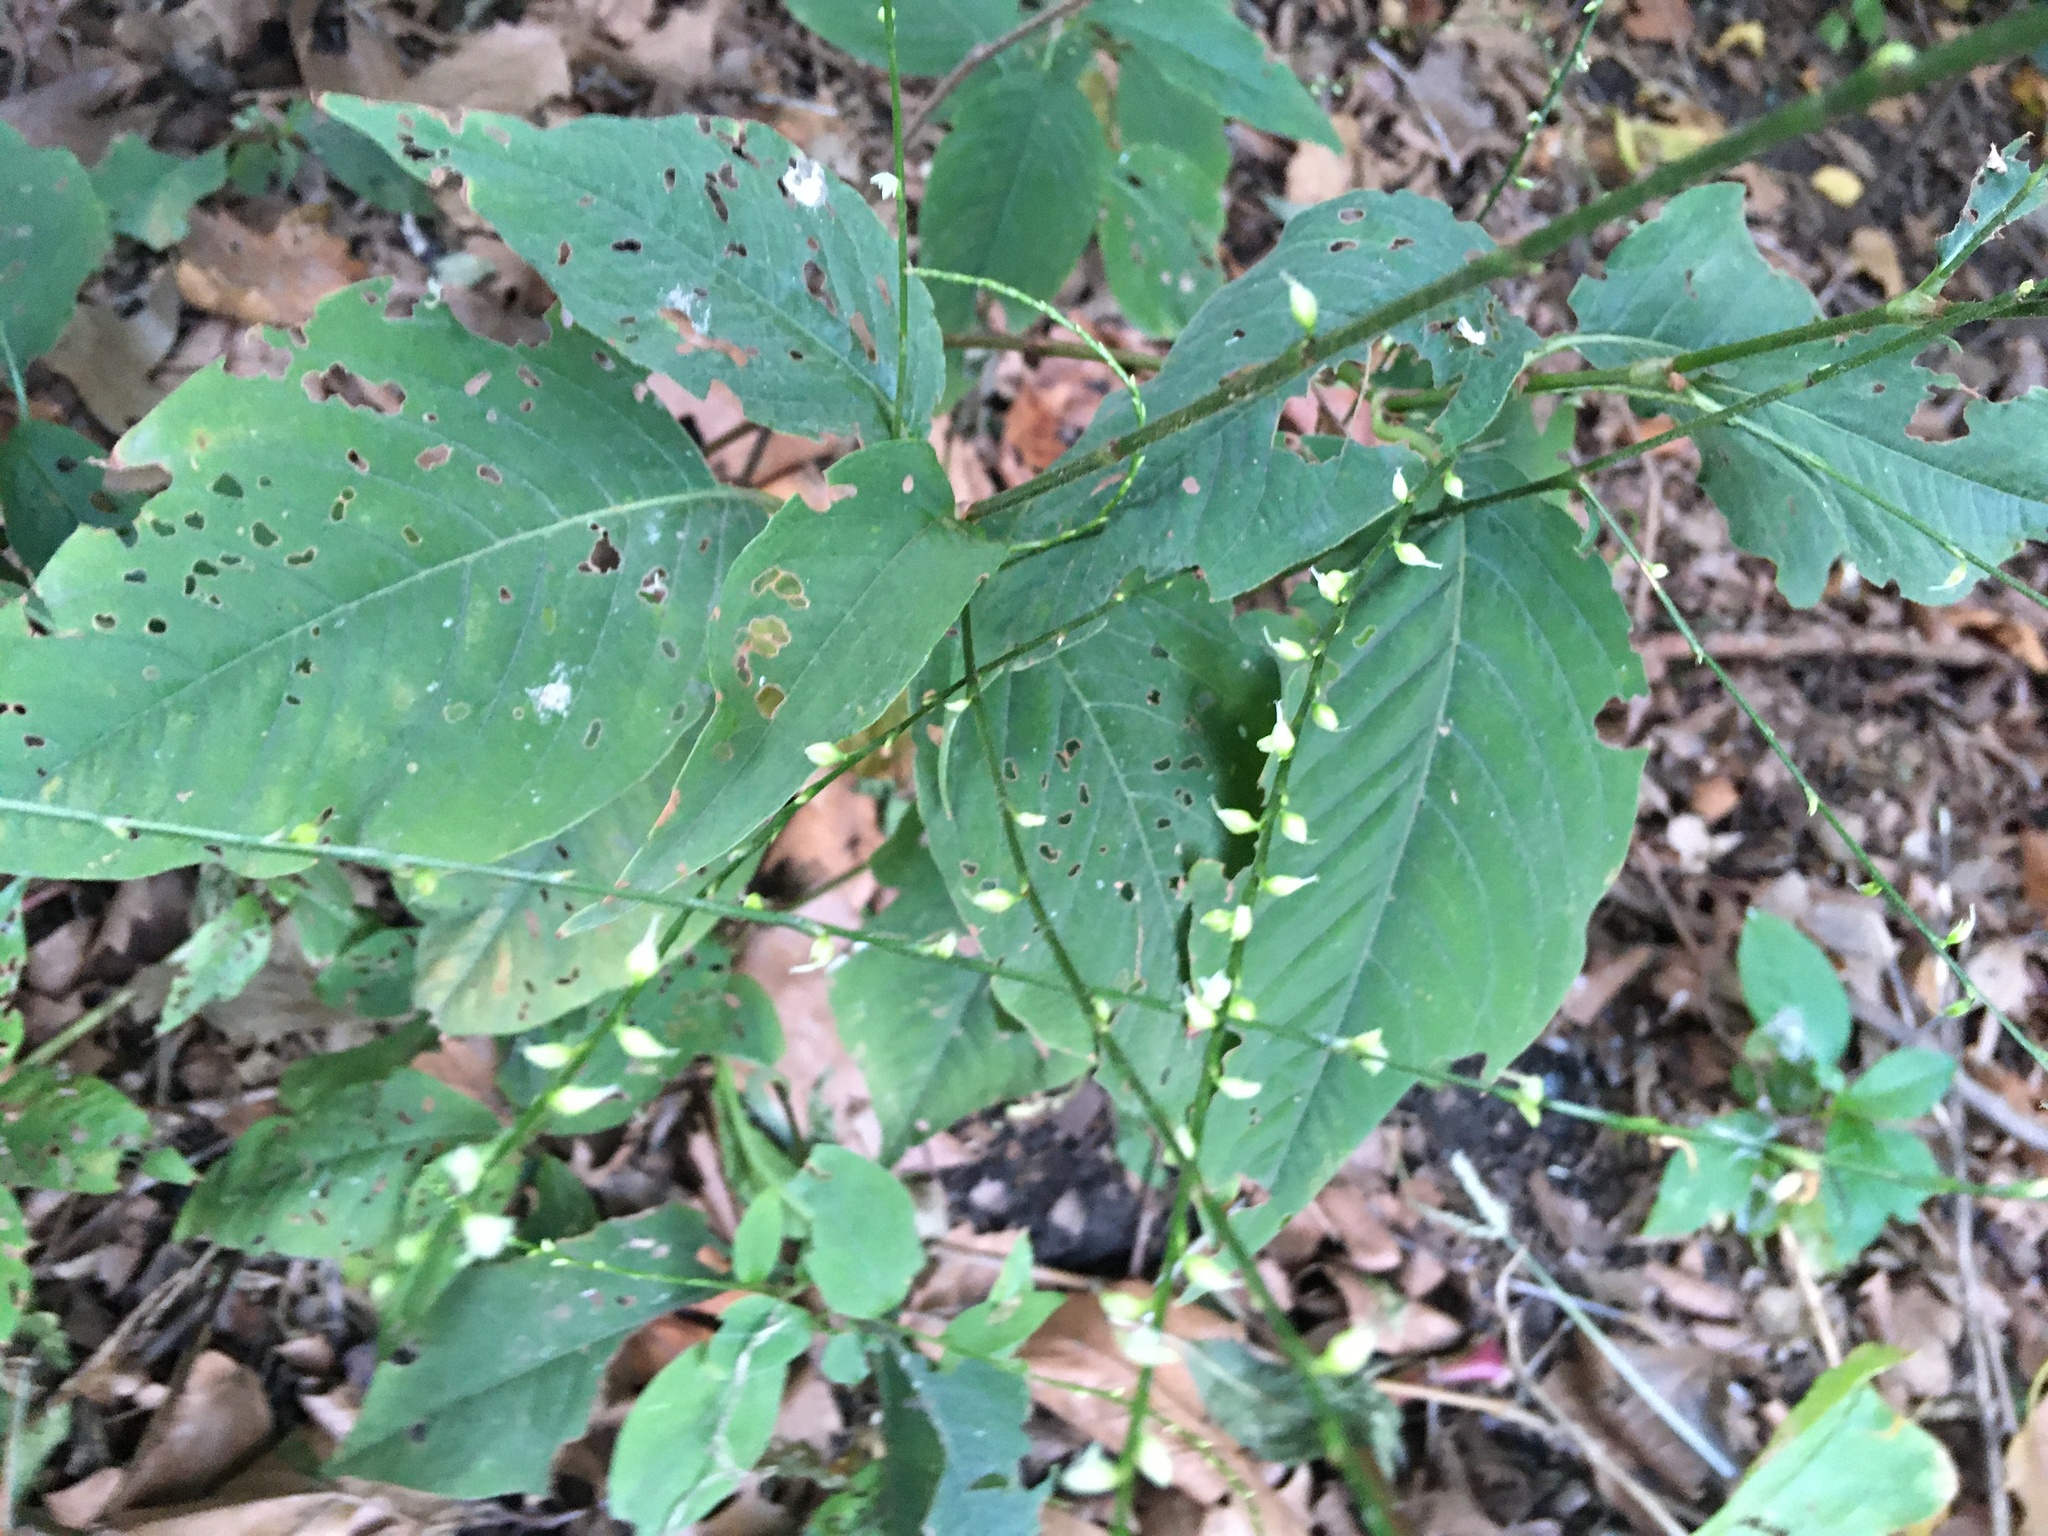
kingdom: Plantae
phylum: Tracheophyta
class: Magnoliopsida
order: Caryophyllales
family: Polygonaceae
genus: Persicaria
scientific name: Persicaria virginiana
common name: Jumpseed
